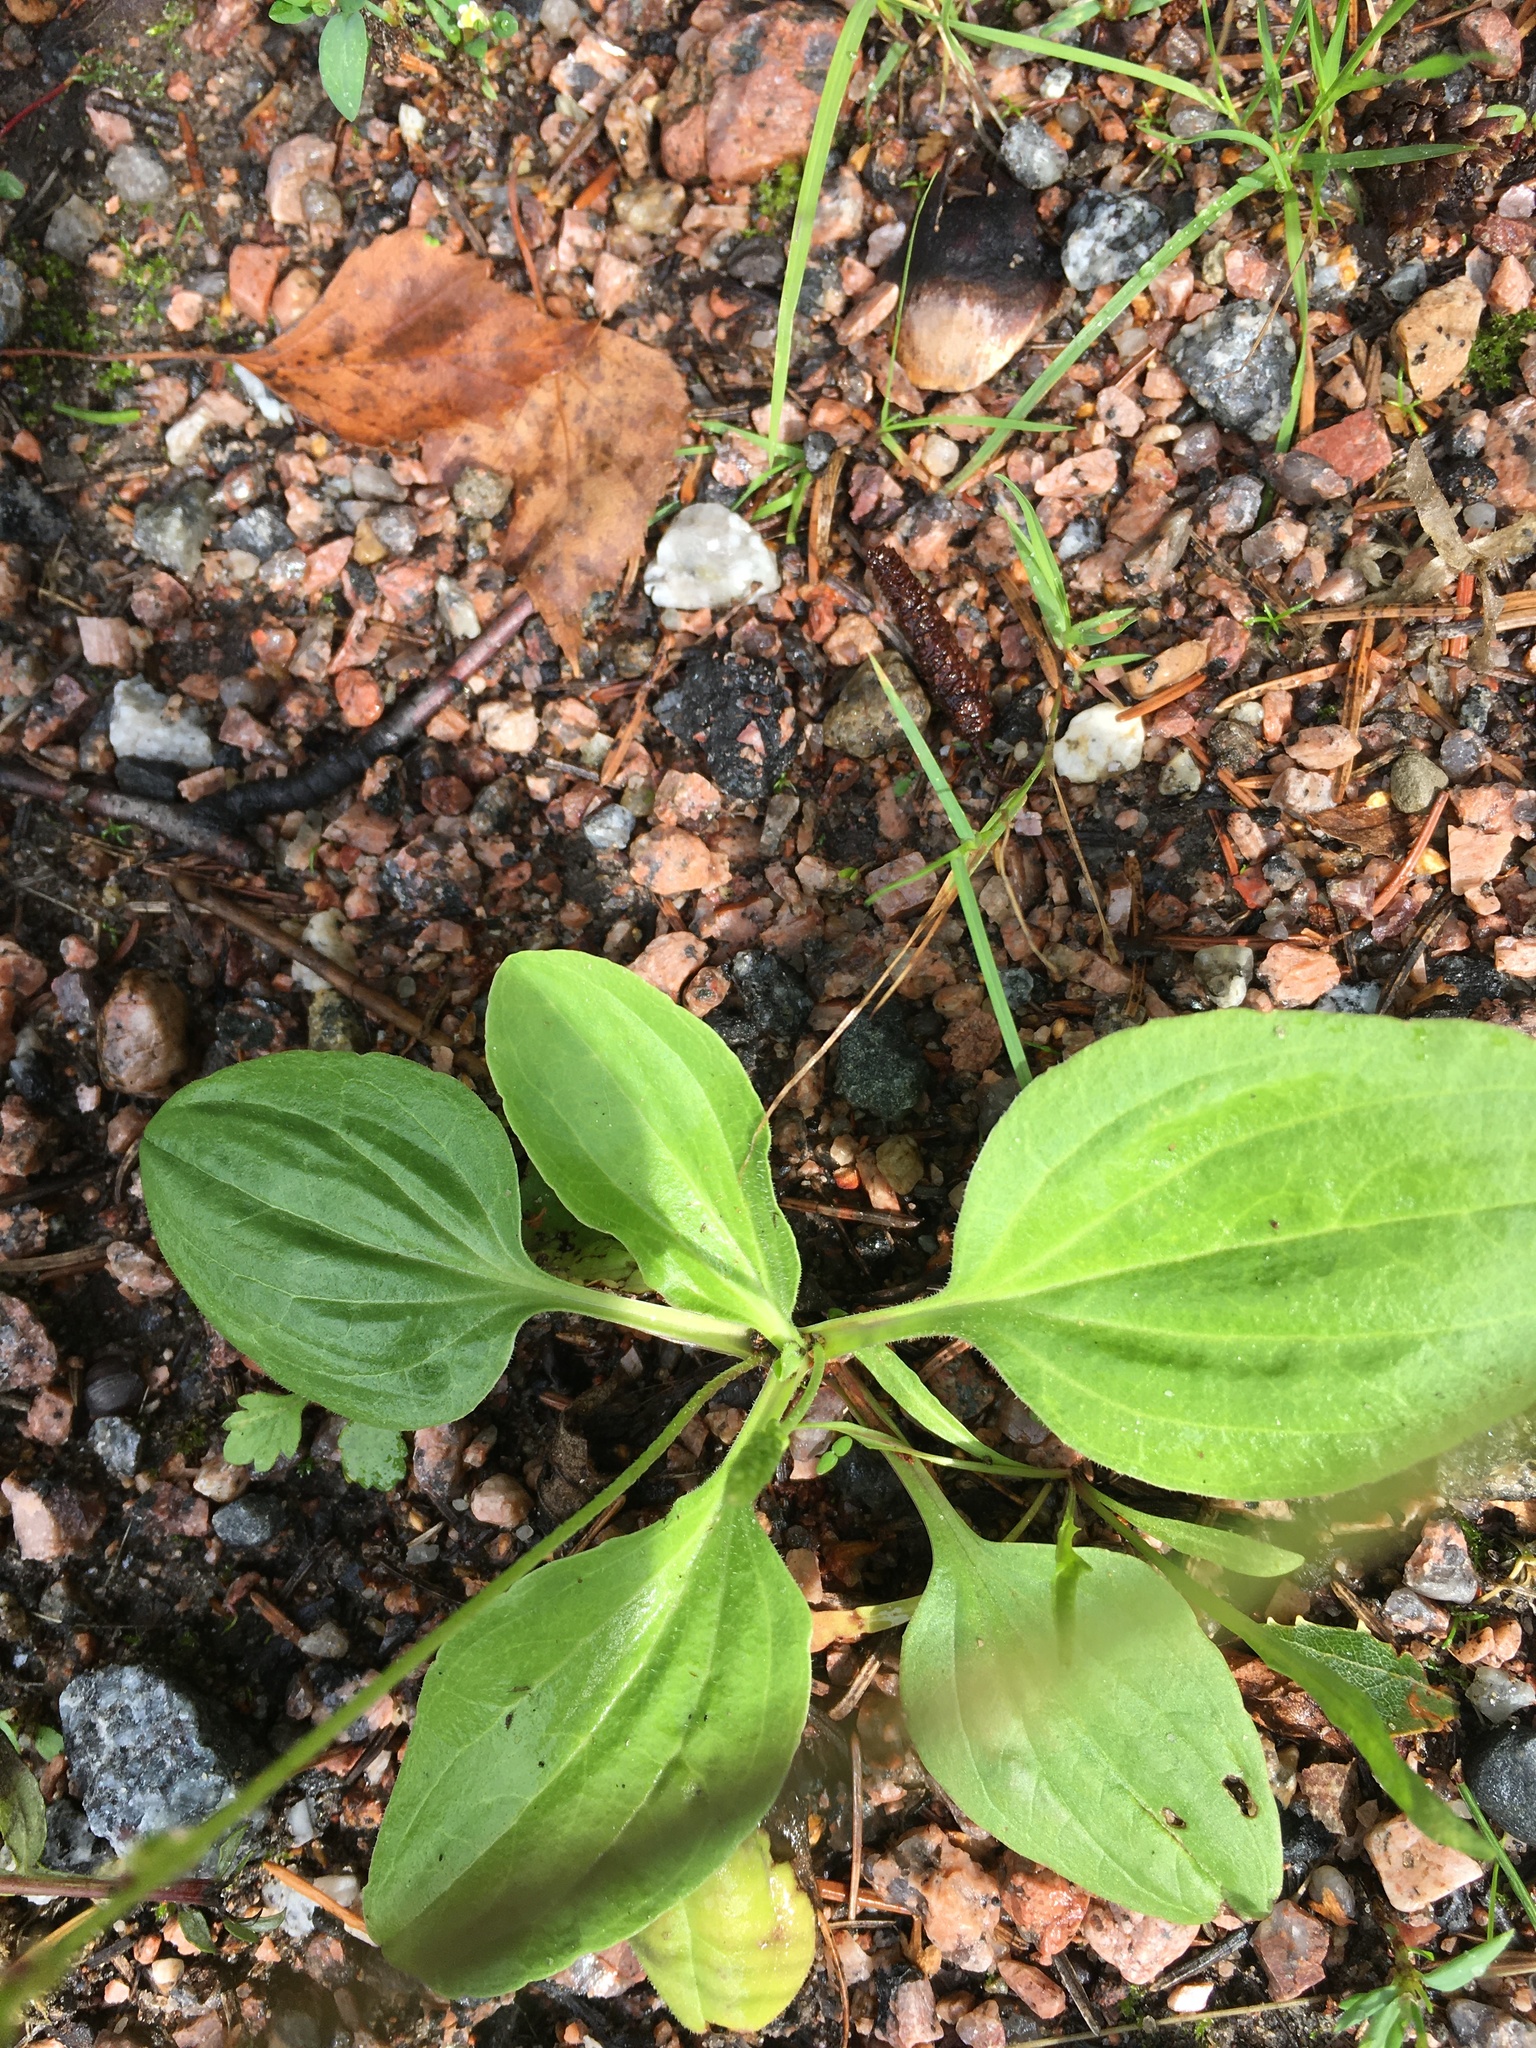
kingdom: Plantae
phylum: Tracheophyta
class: Magnoliopsida
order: Lamiales
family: Plantaginaceae
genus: Plantago
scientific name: Plantago major
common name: Common plantain
